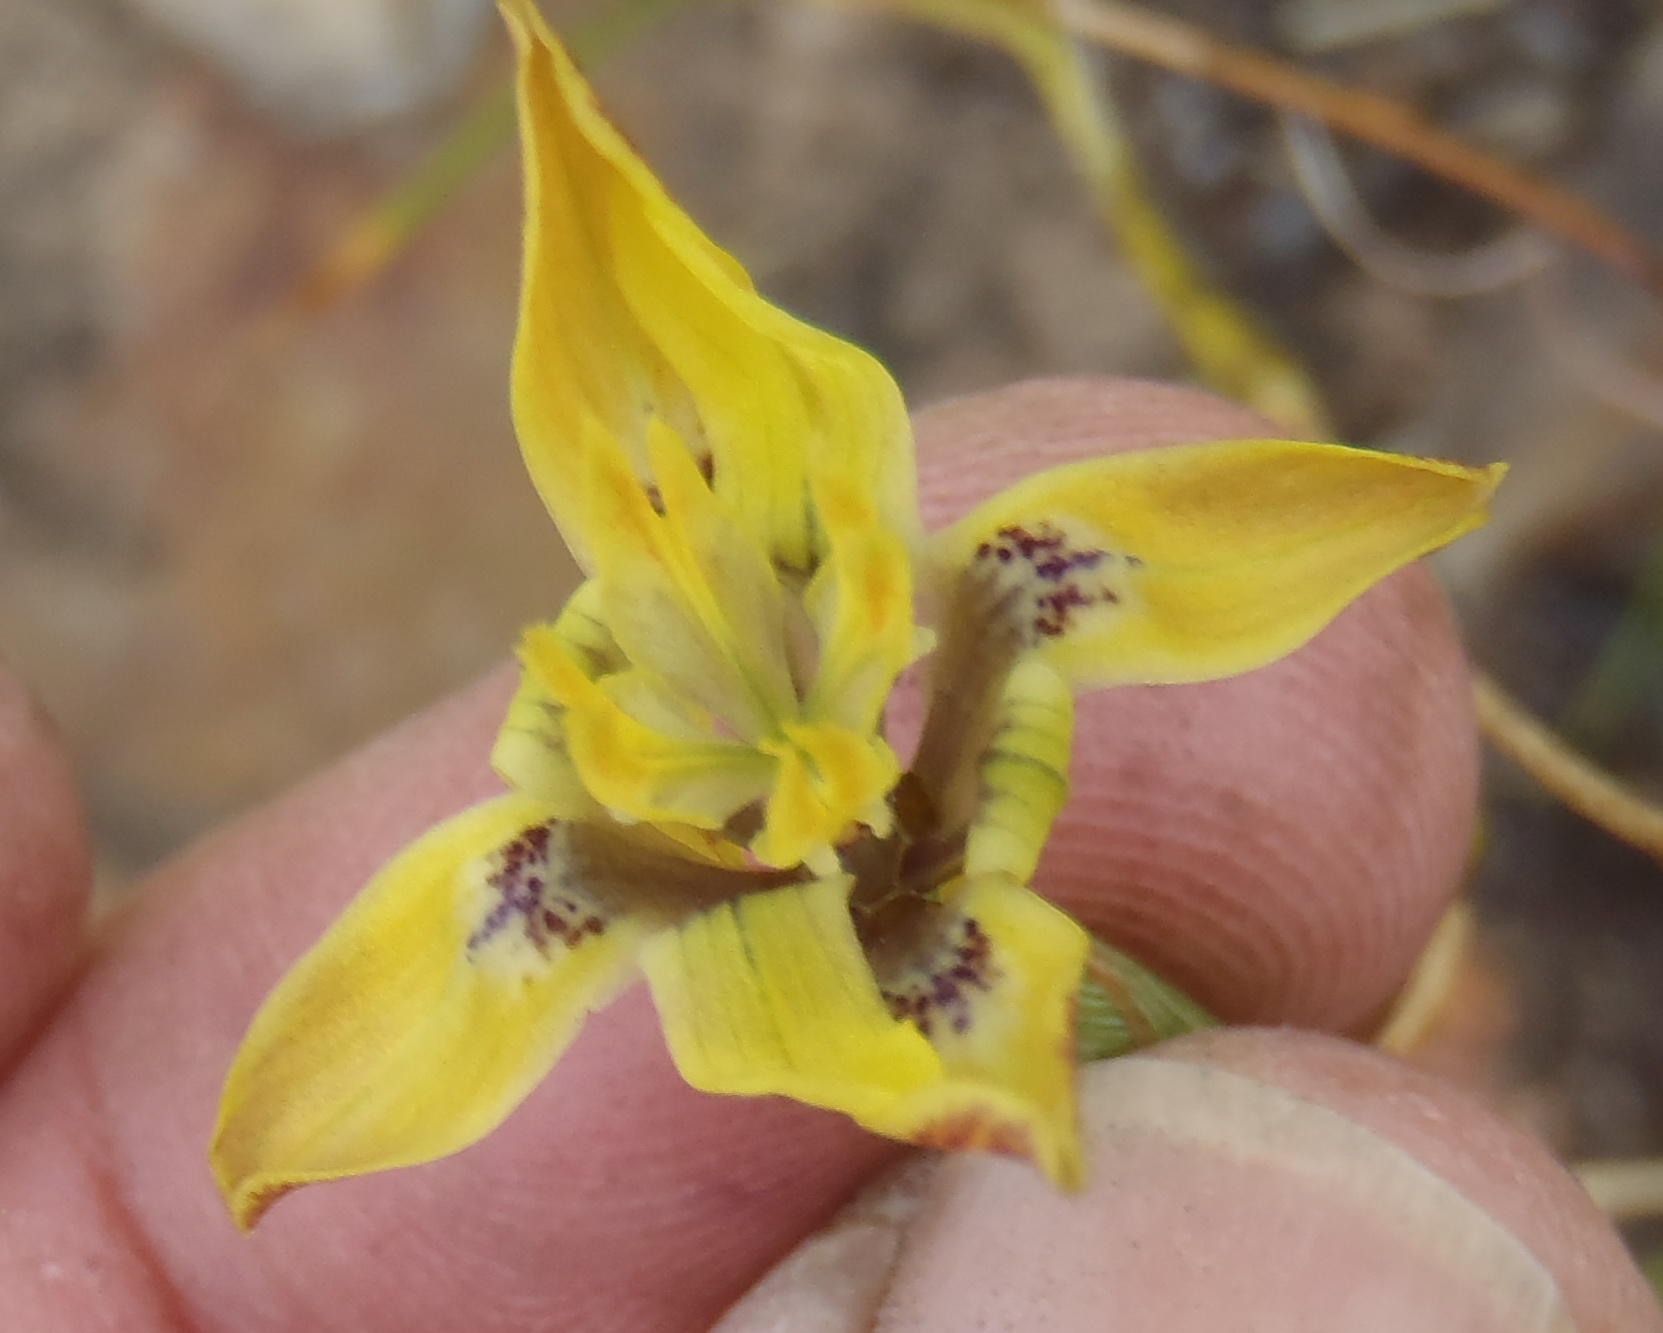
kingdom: Plantae
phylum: Tracheophyta
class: Liliopsida
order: Asparagales
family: Iridaceae
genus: Moraea
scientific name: Moraea inconspicua
